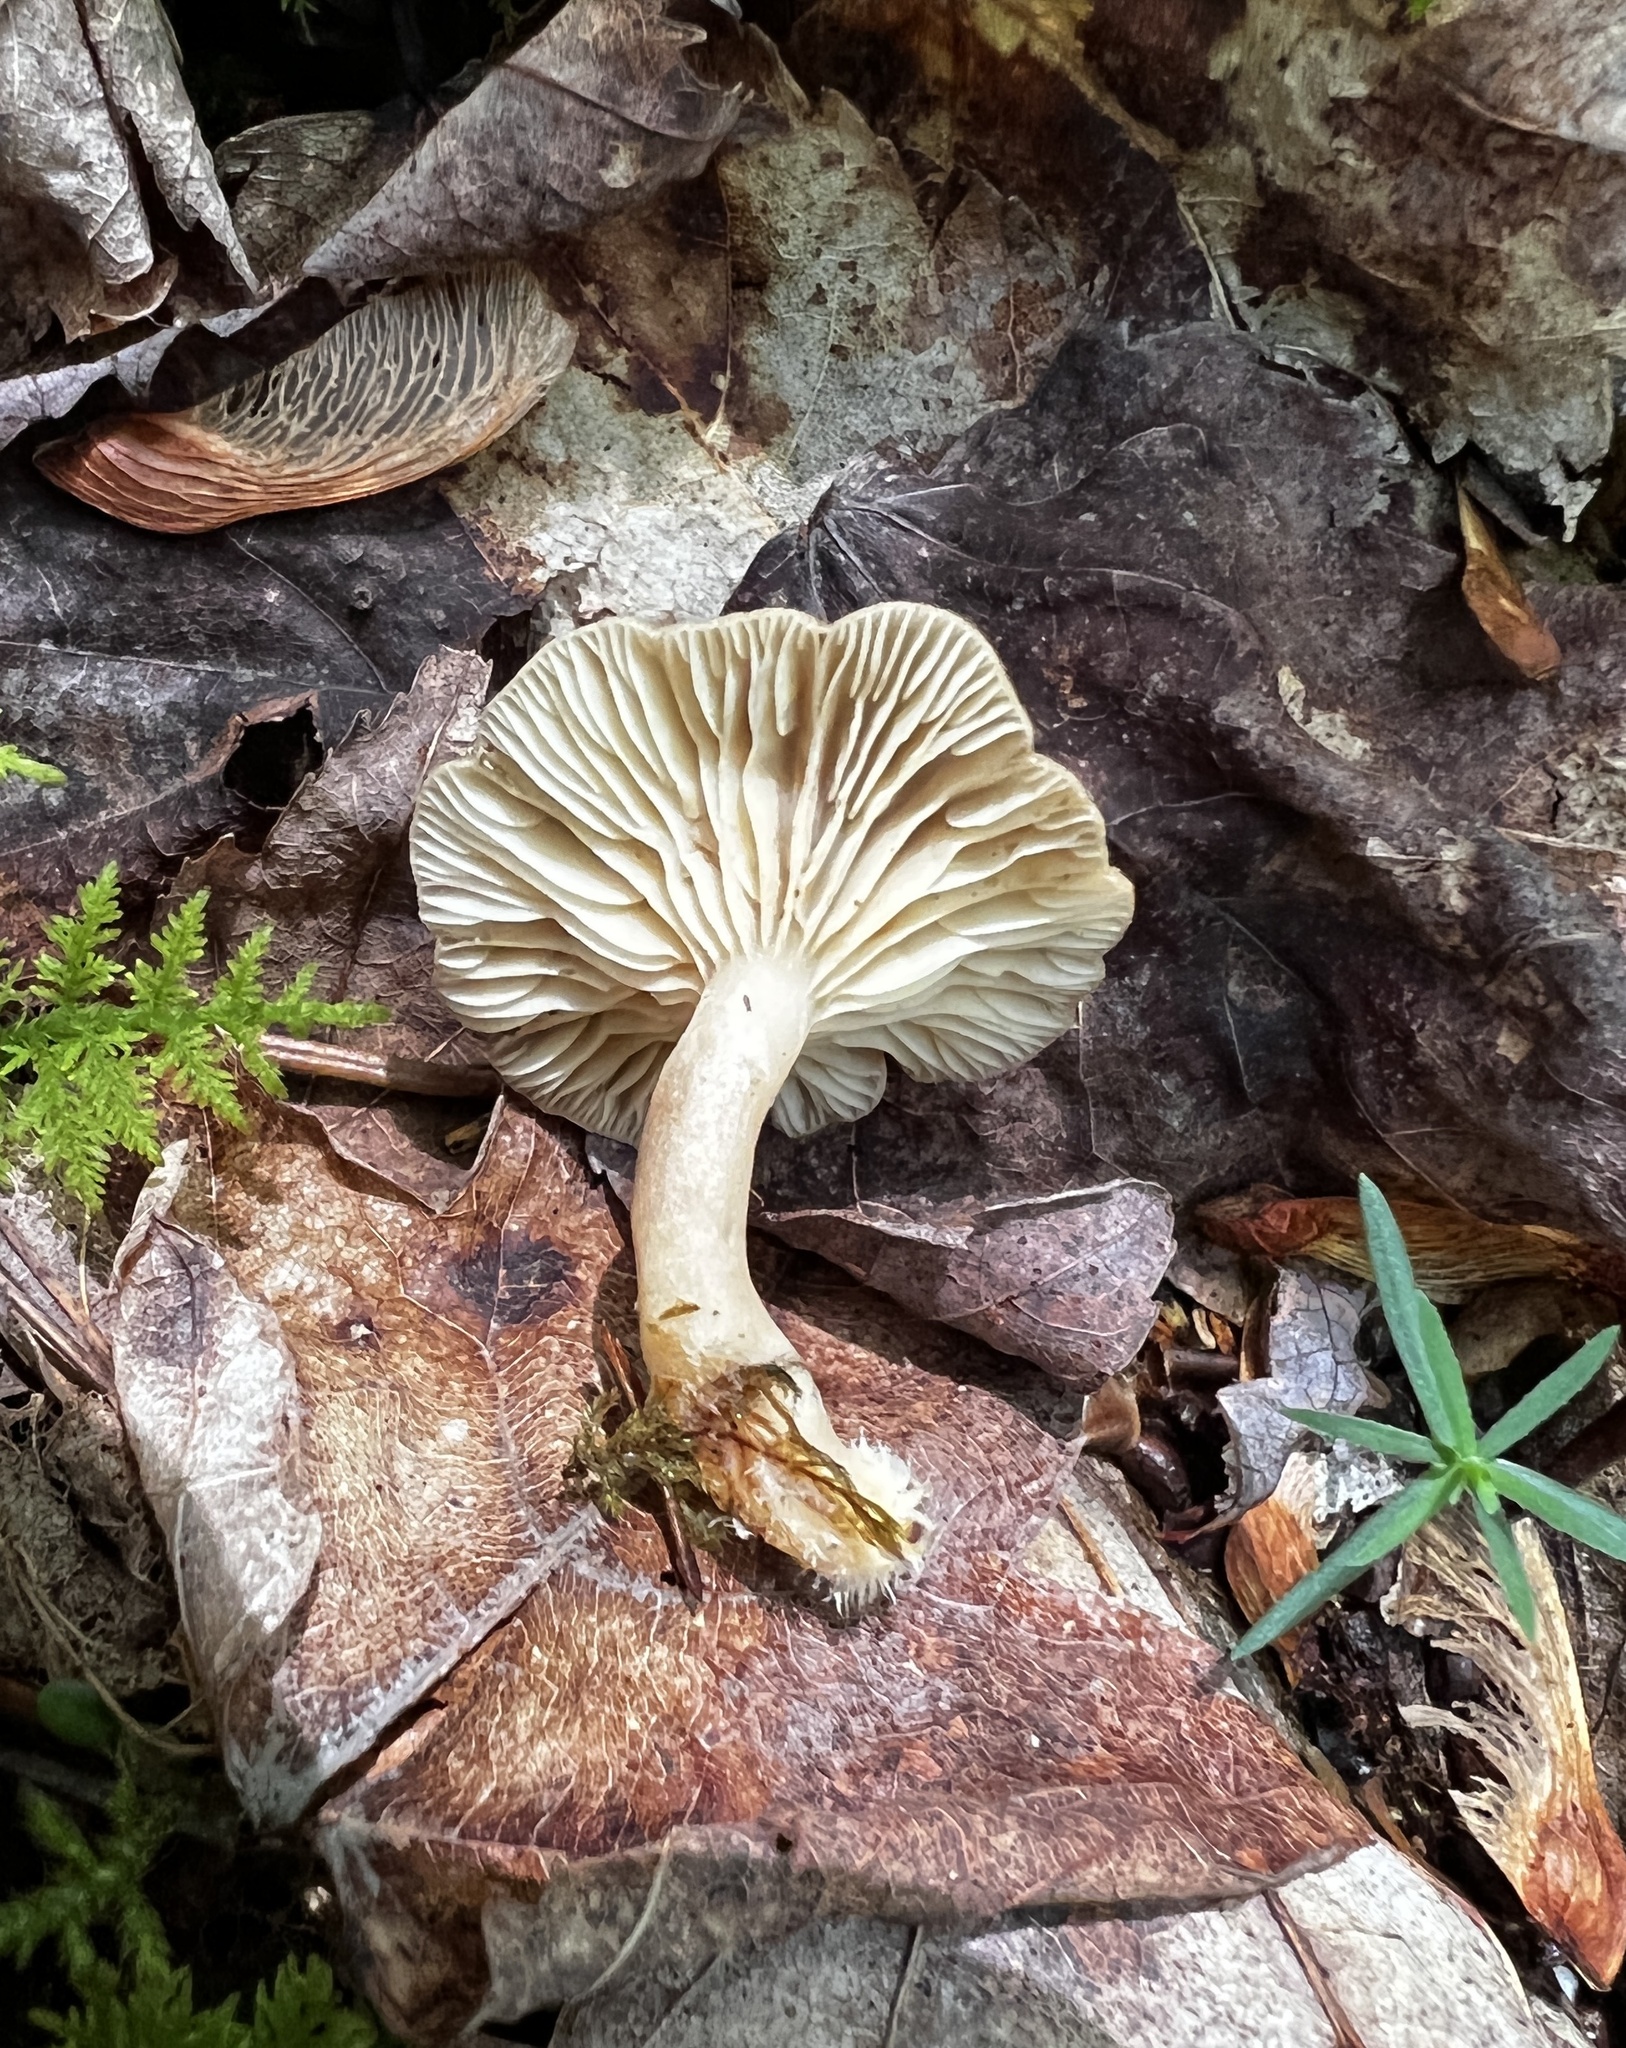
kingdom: Fungi
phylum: Basidiomycota
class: Agaricomycetes
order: Russulales
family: Russulaceae
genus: Lactarius
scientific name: Lactarius griseus
